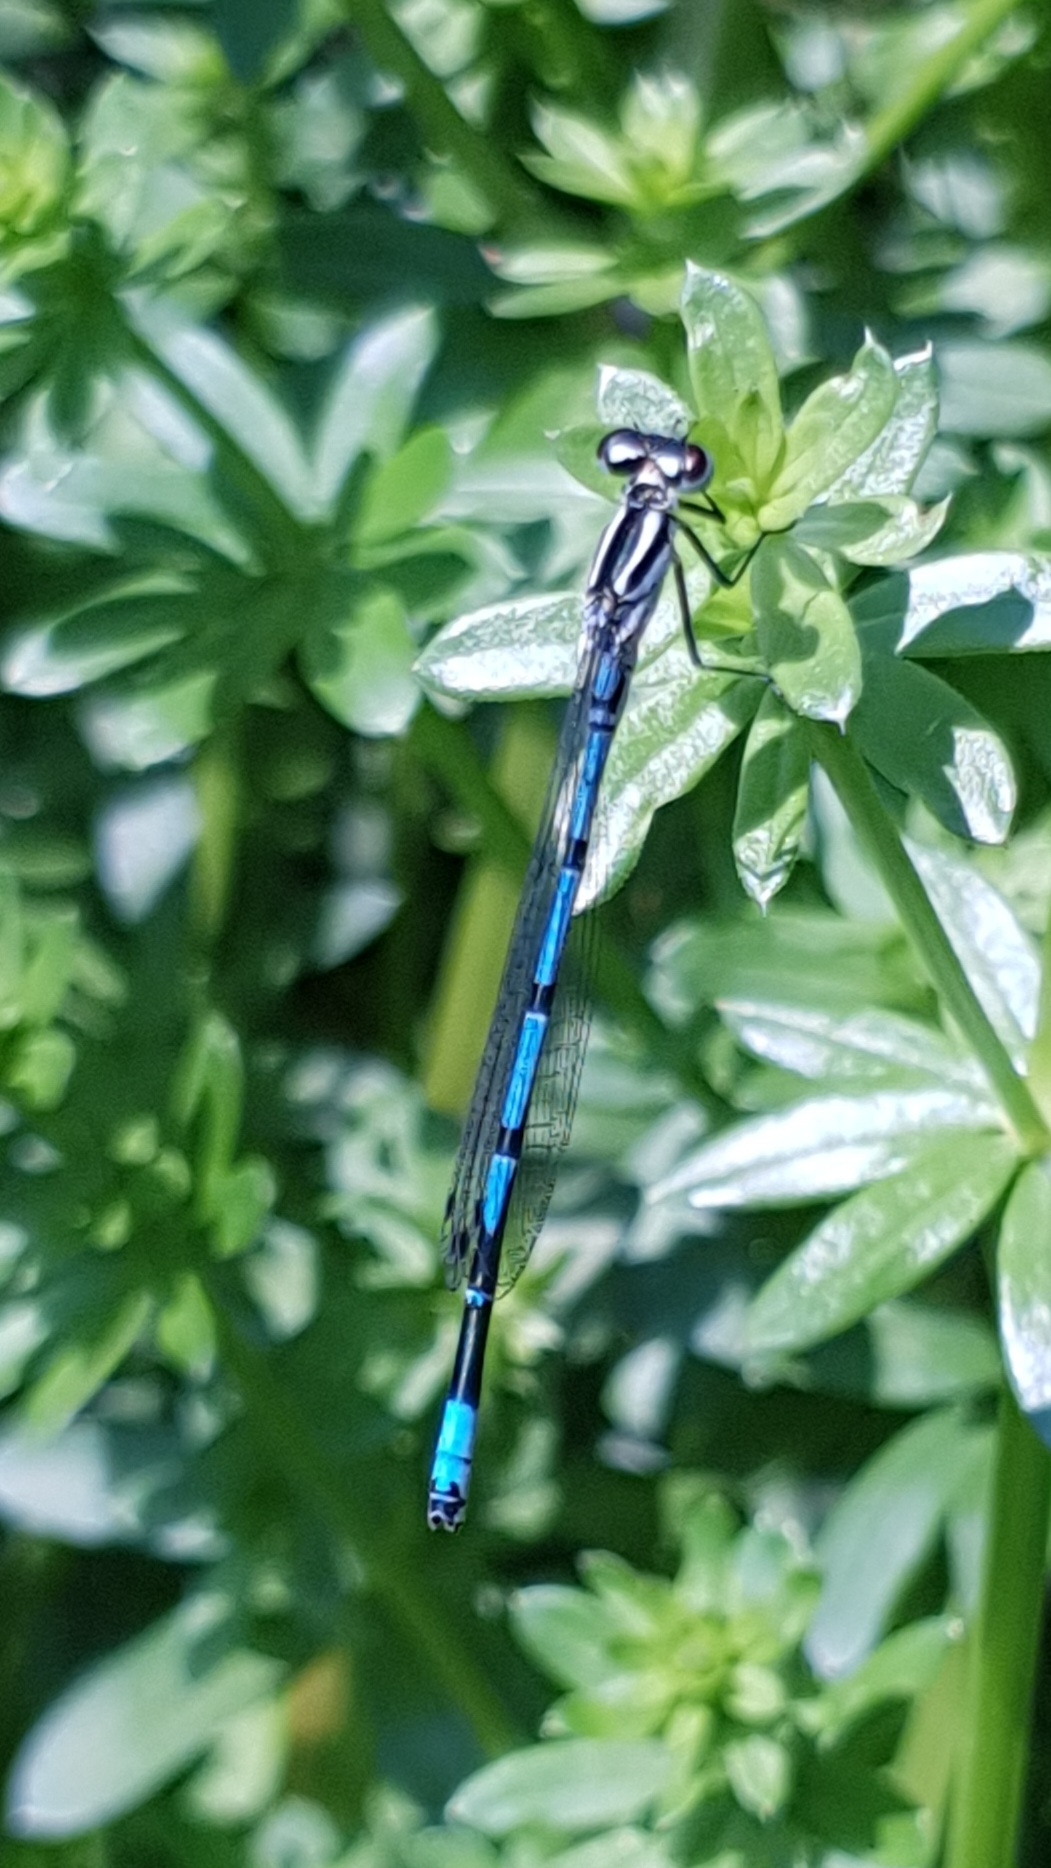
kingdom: Animalia
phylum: Arthropoda
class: Insecta
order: Odonata
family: Coenagrionidae
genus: Coenagrion
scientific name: Coenagrion puella
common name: Azure damselfly
